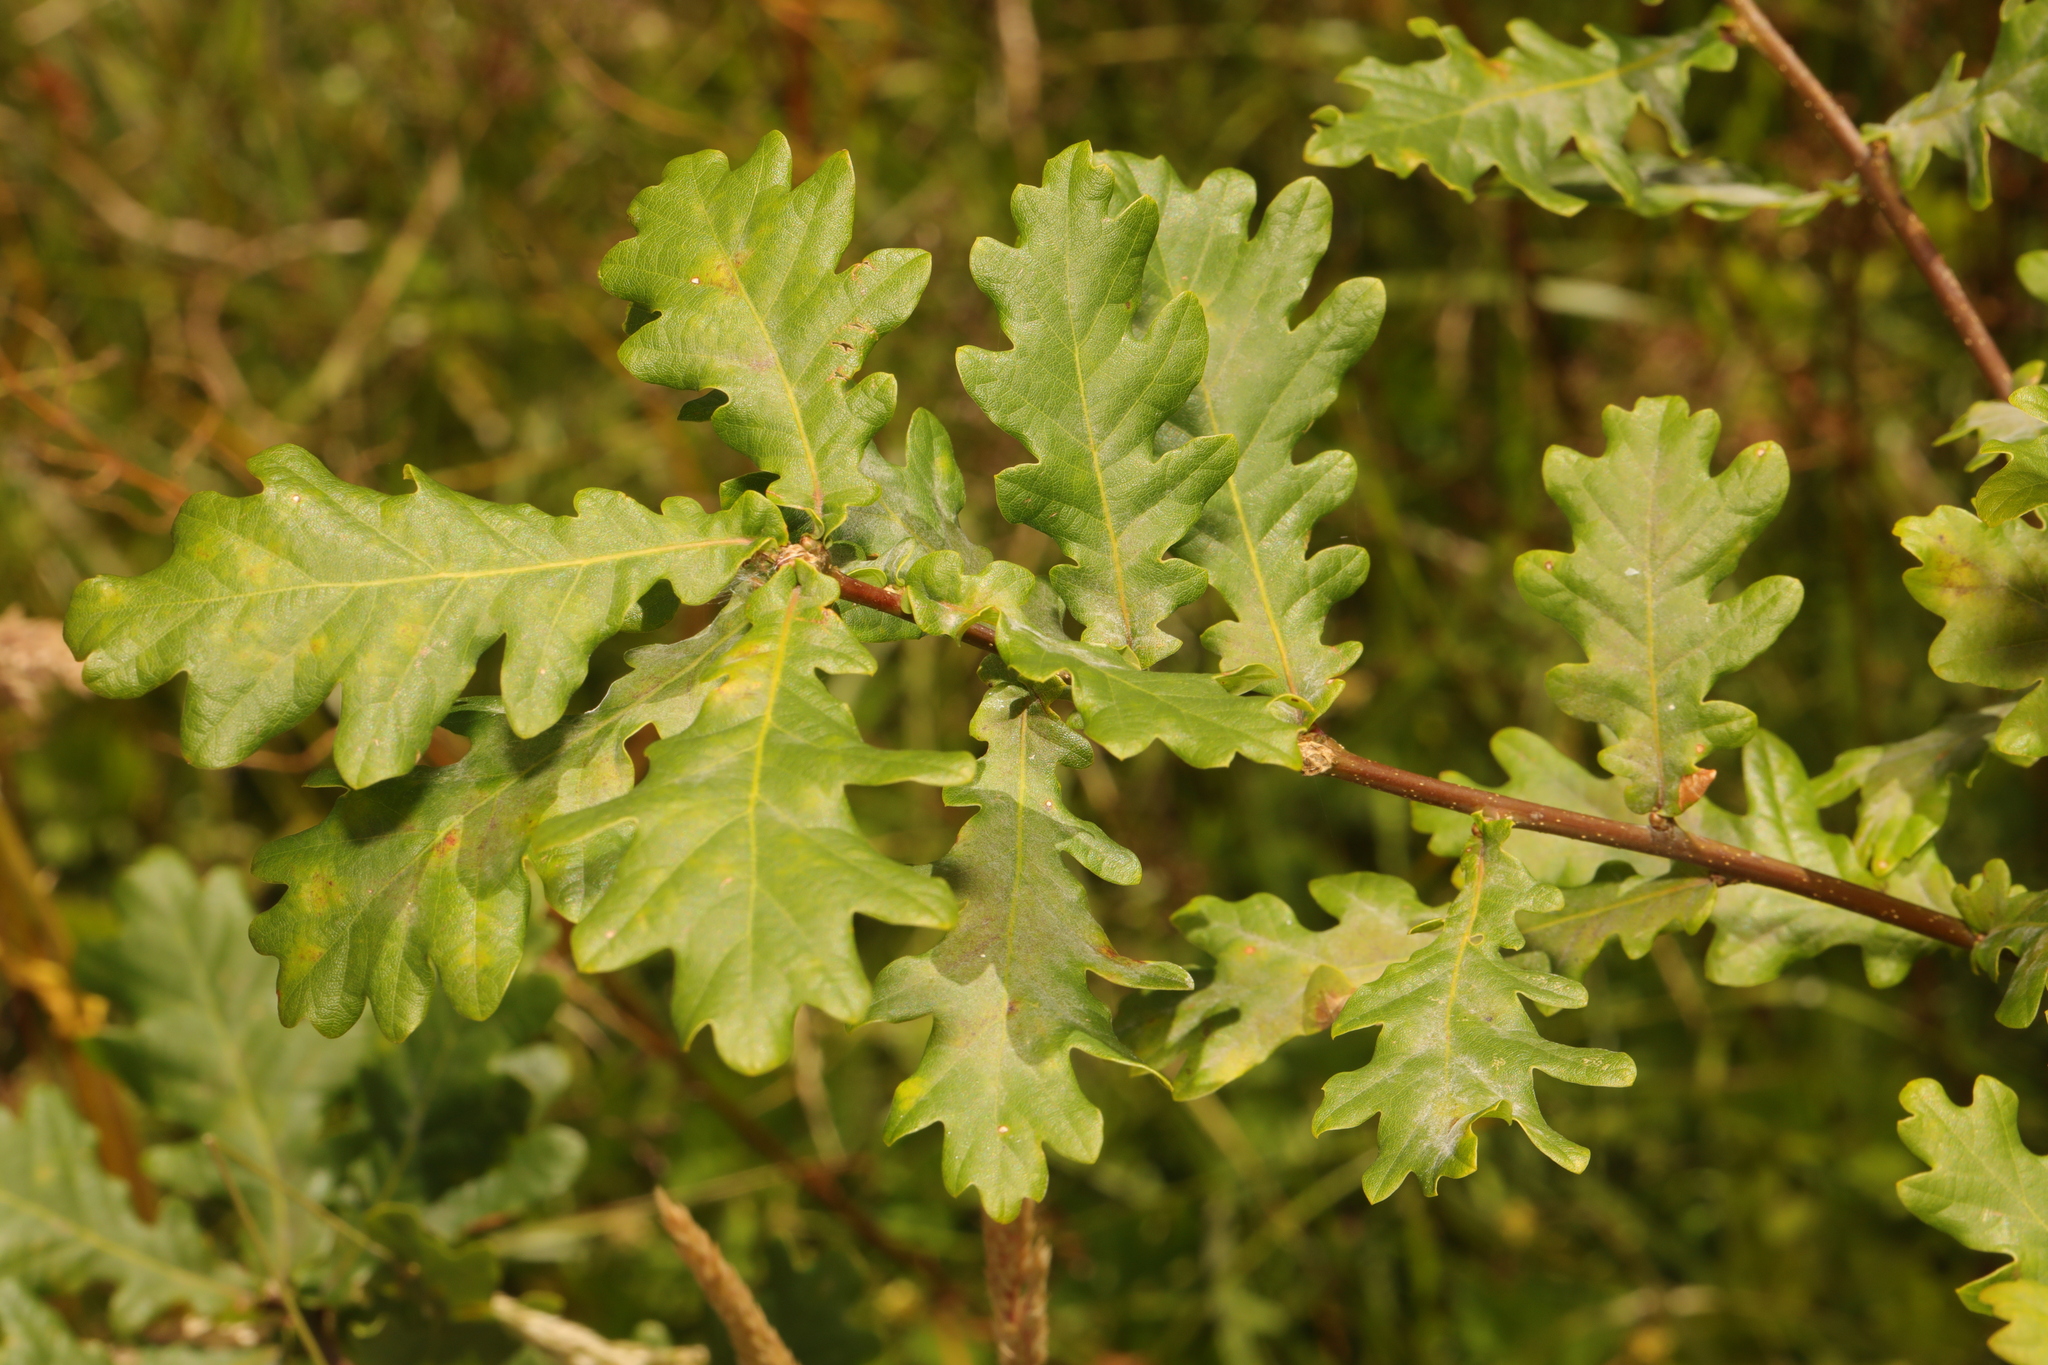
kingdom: Plantae
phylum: Tracheophyta
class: Magnoliopsida
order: Fagales
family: Fagaceae
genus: Quercus
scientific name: Quercus robur
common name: Pedunculate oak
